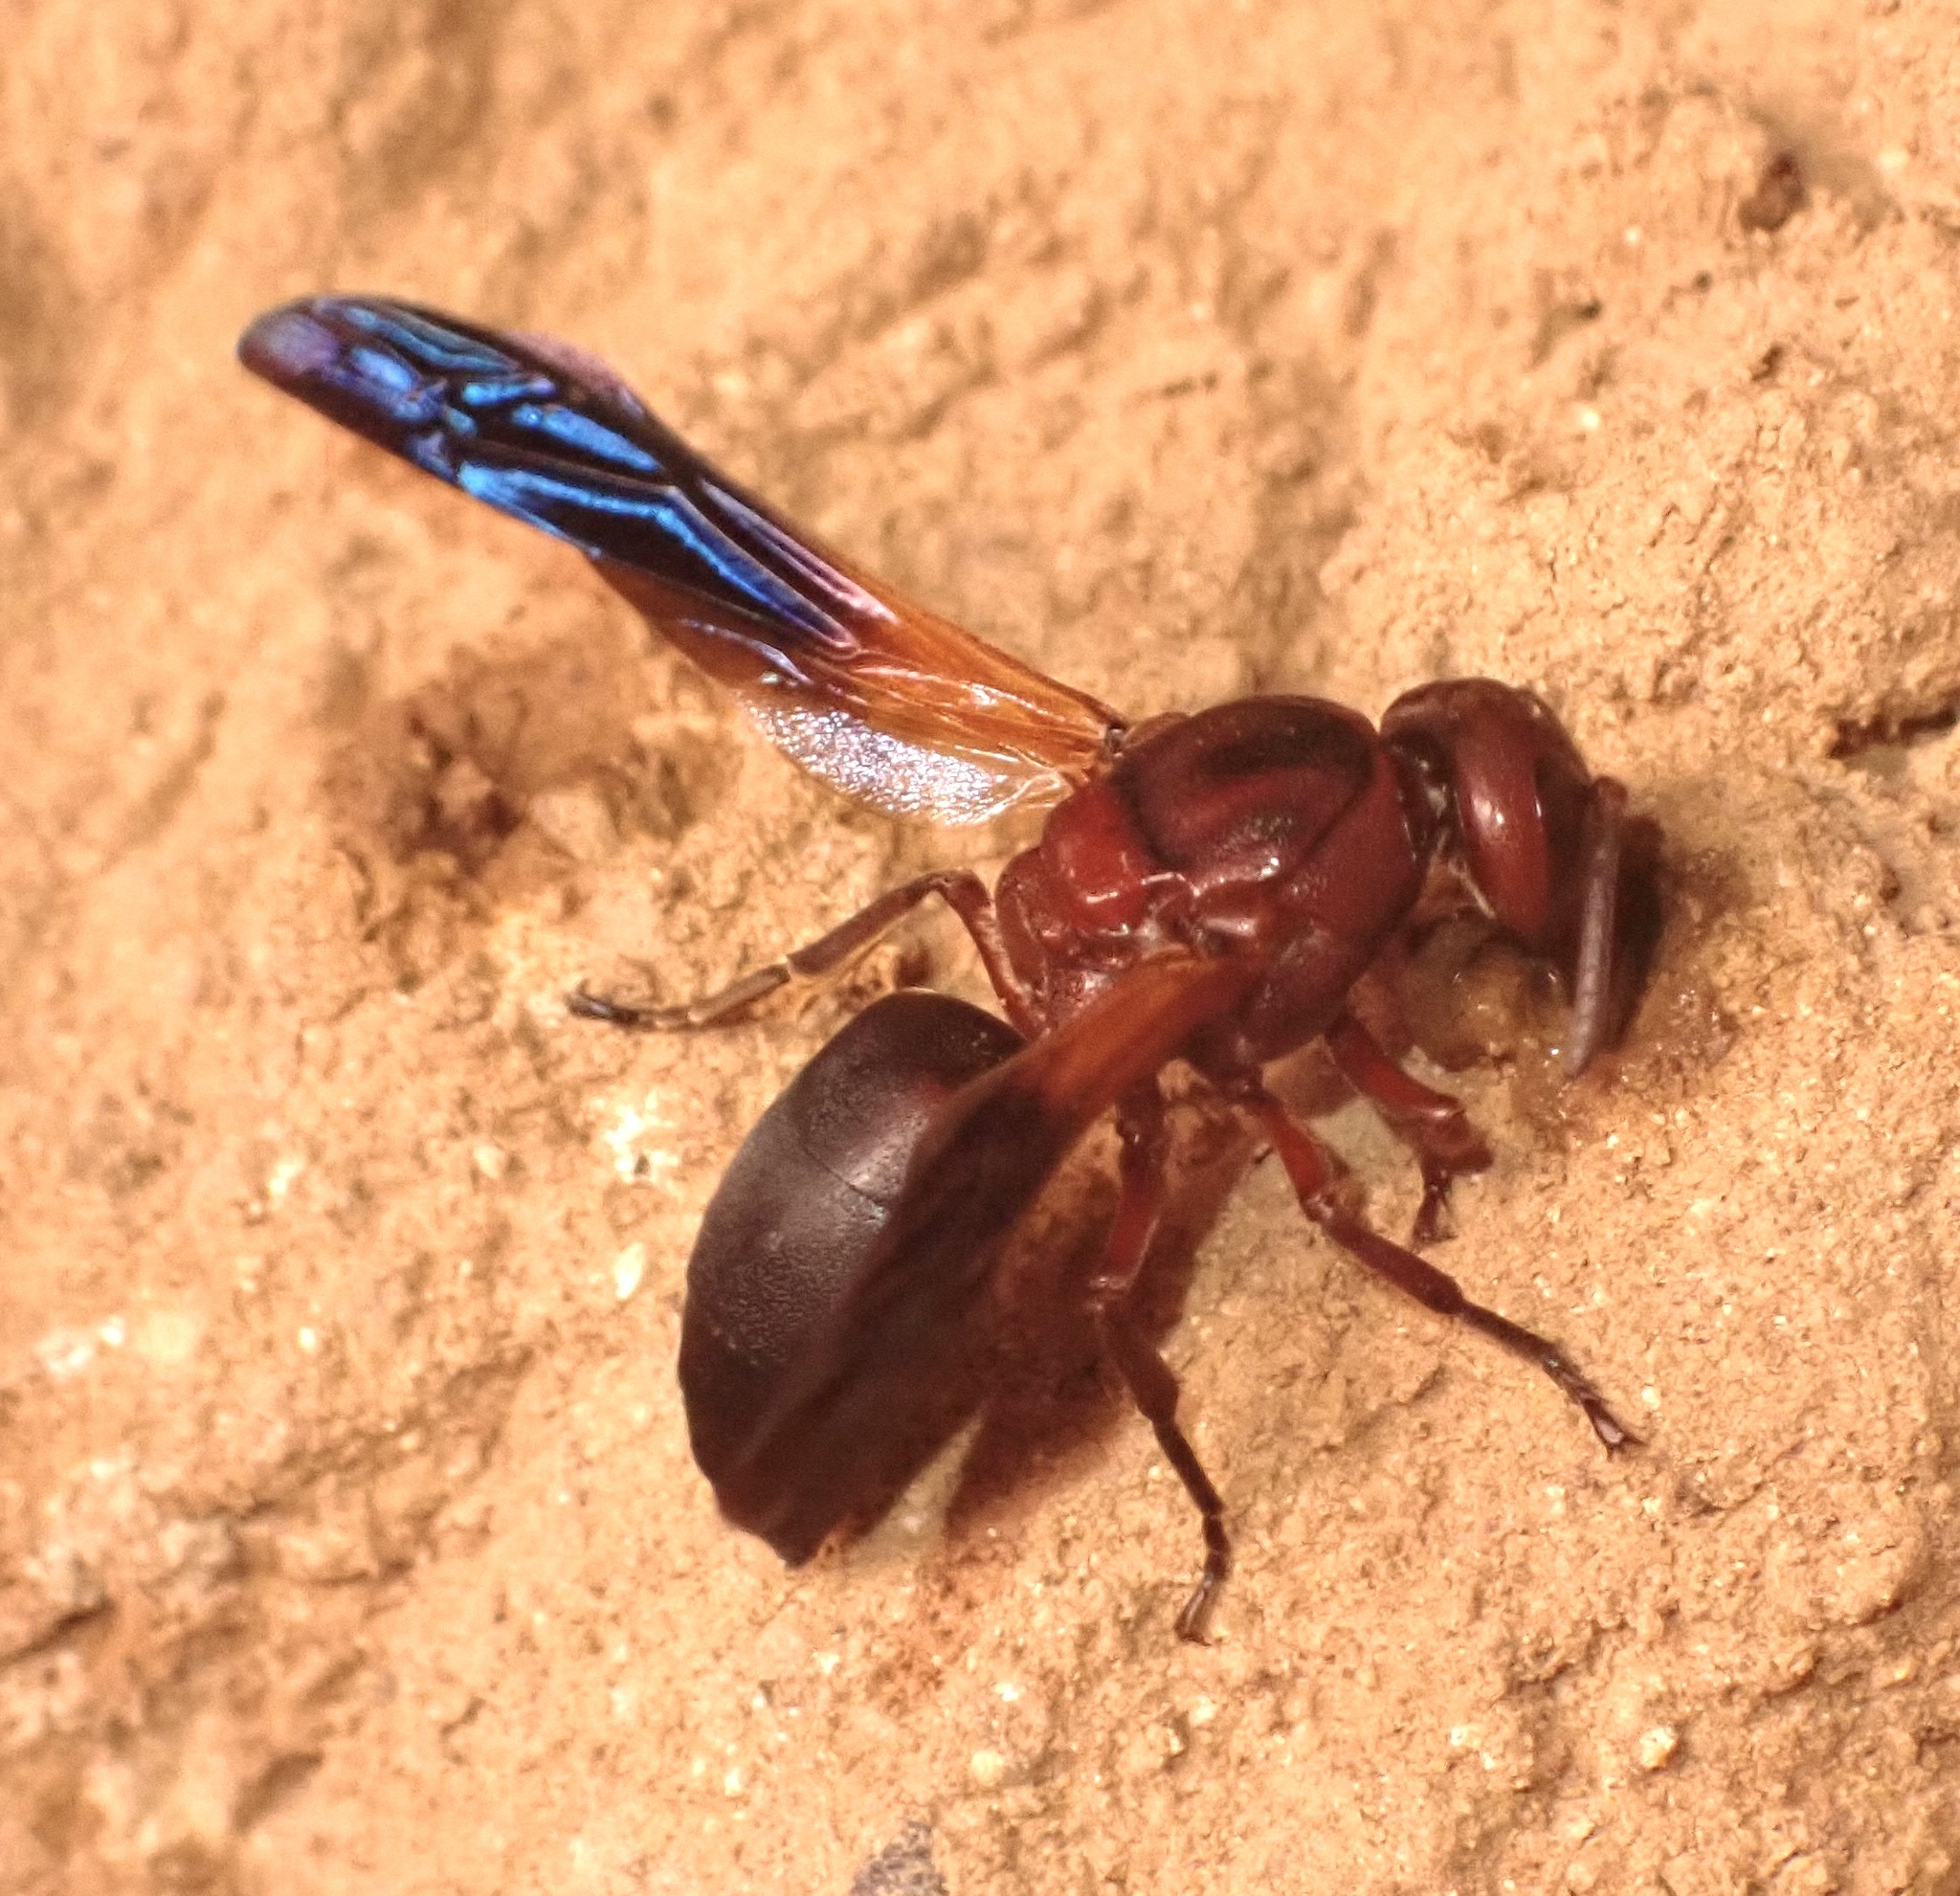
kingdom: Animalia
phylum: Arthropoda
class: Insecta
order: Hymenoptera
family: Eumenidae
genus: Rhynchium
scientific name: Rhynchium cyanopterum
